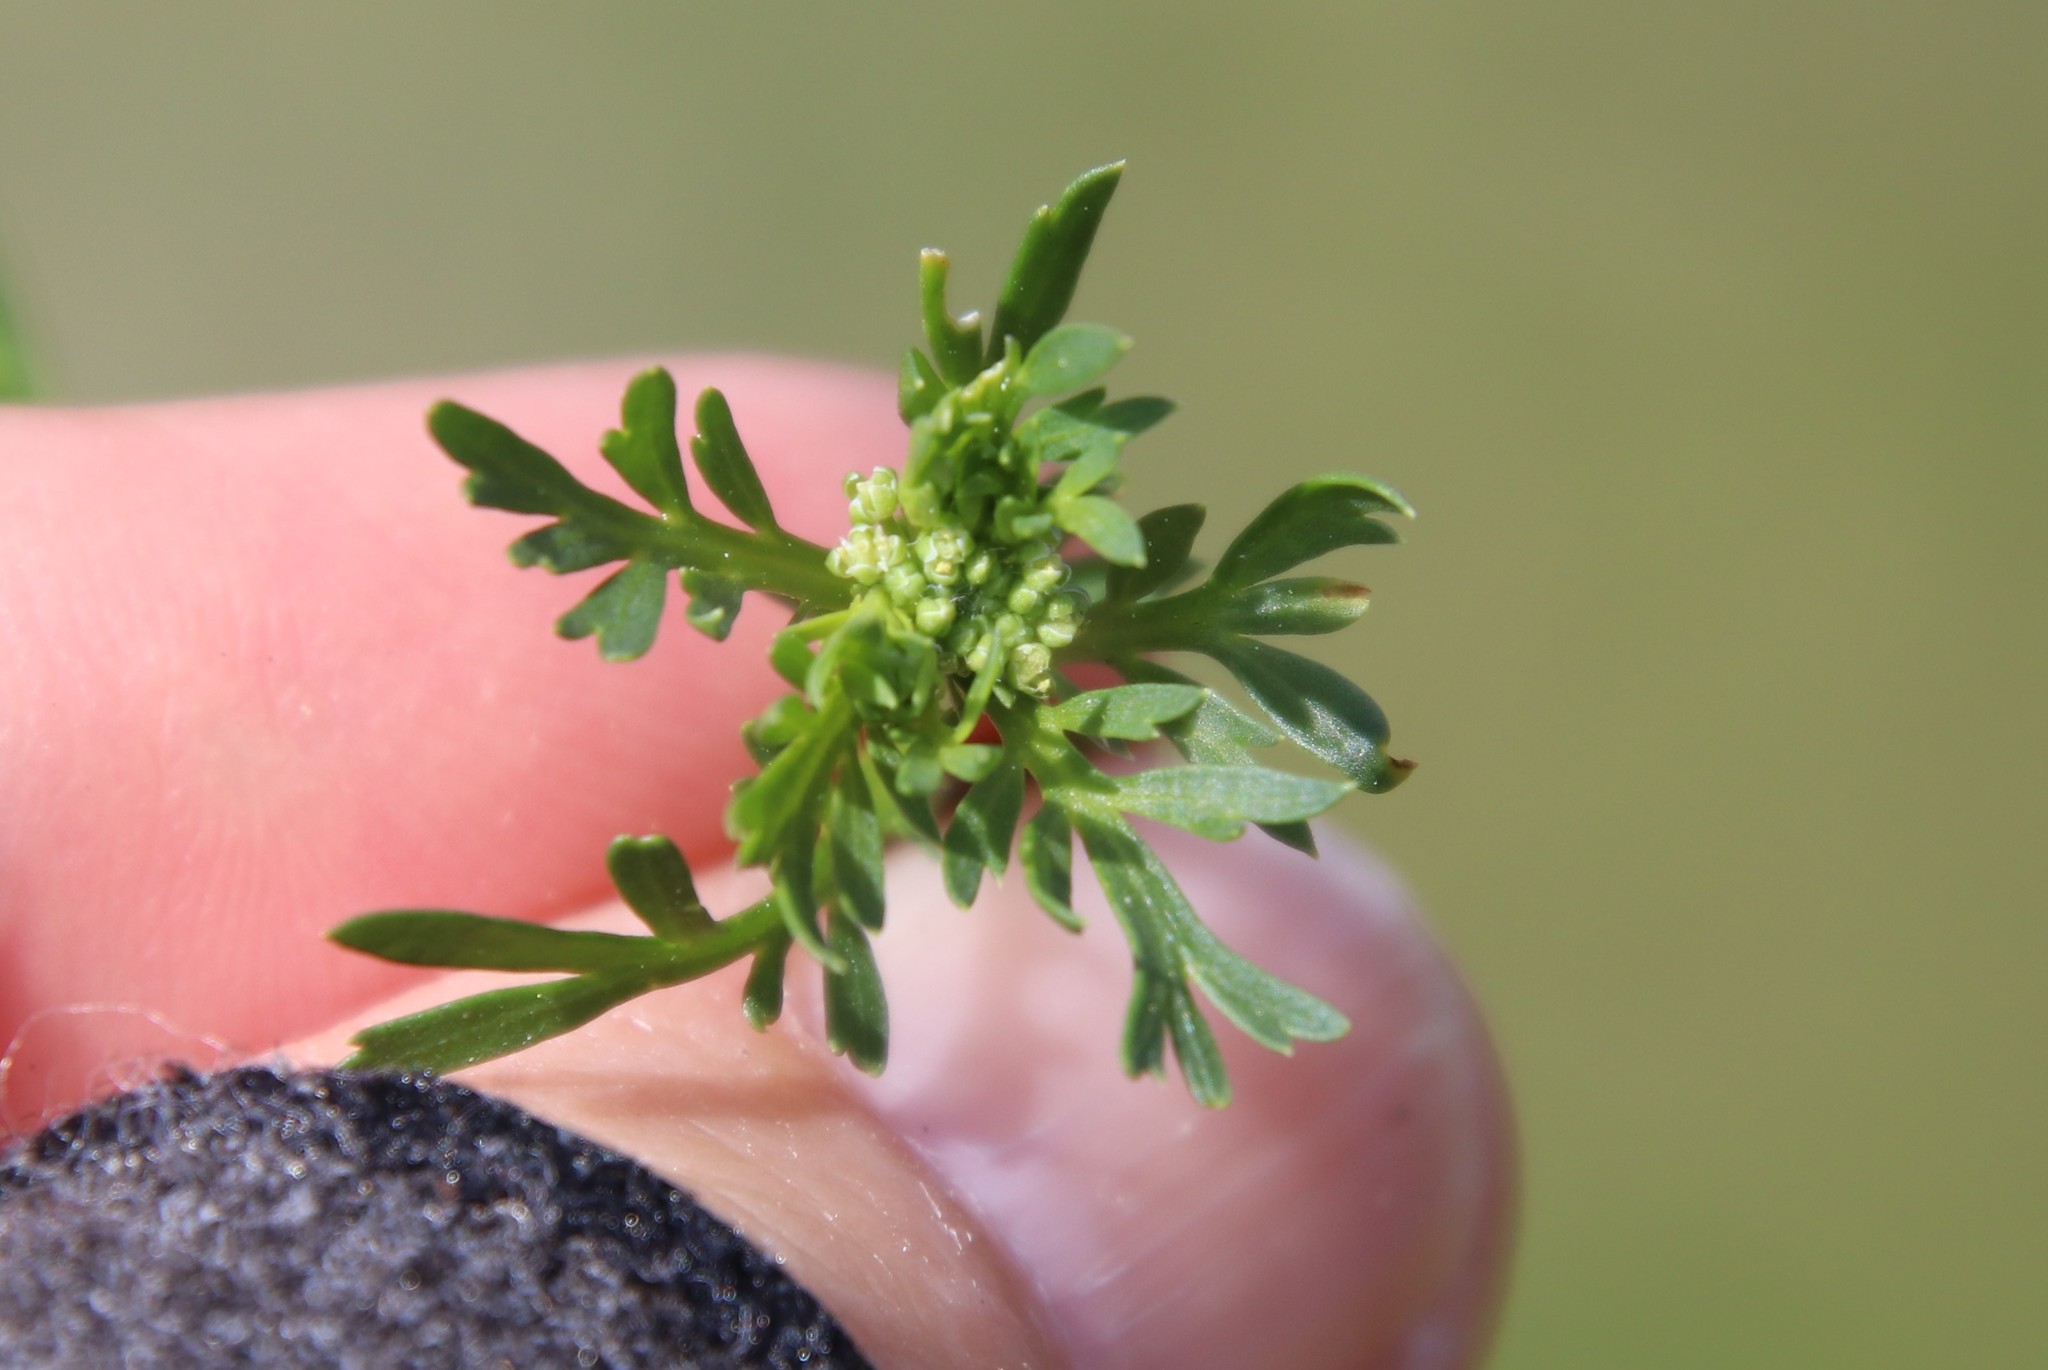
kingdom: Plantae
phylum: Tracheophyta
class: Magnoliopsida
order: Brassicales
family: Brassicaceae
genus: Lepidium
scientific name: Lepidium didymum
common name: Lesser swinecress
